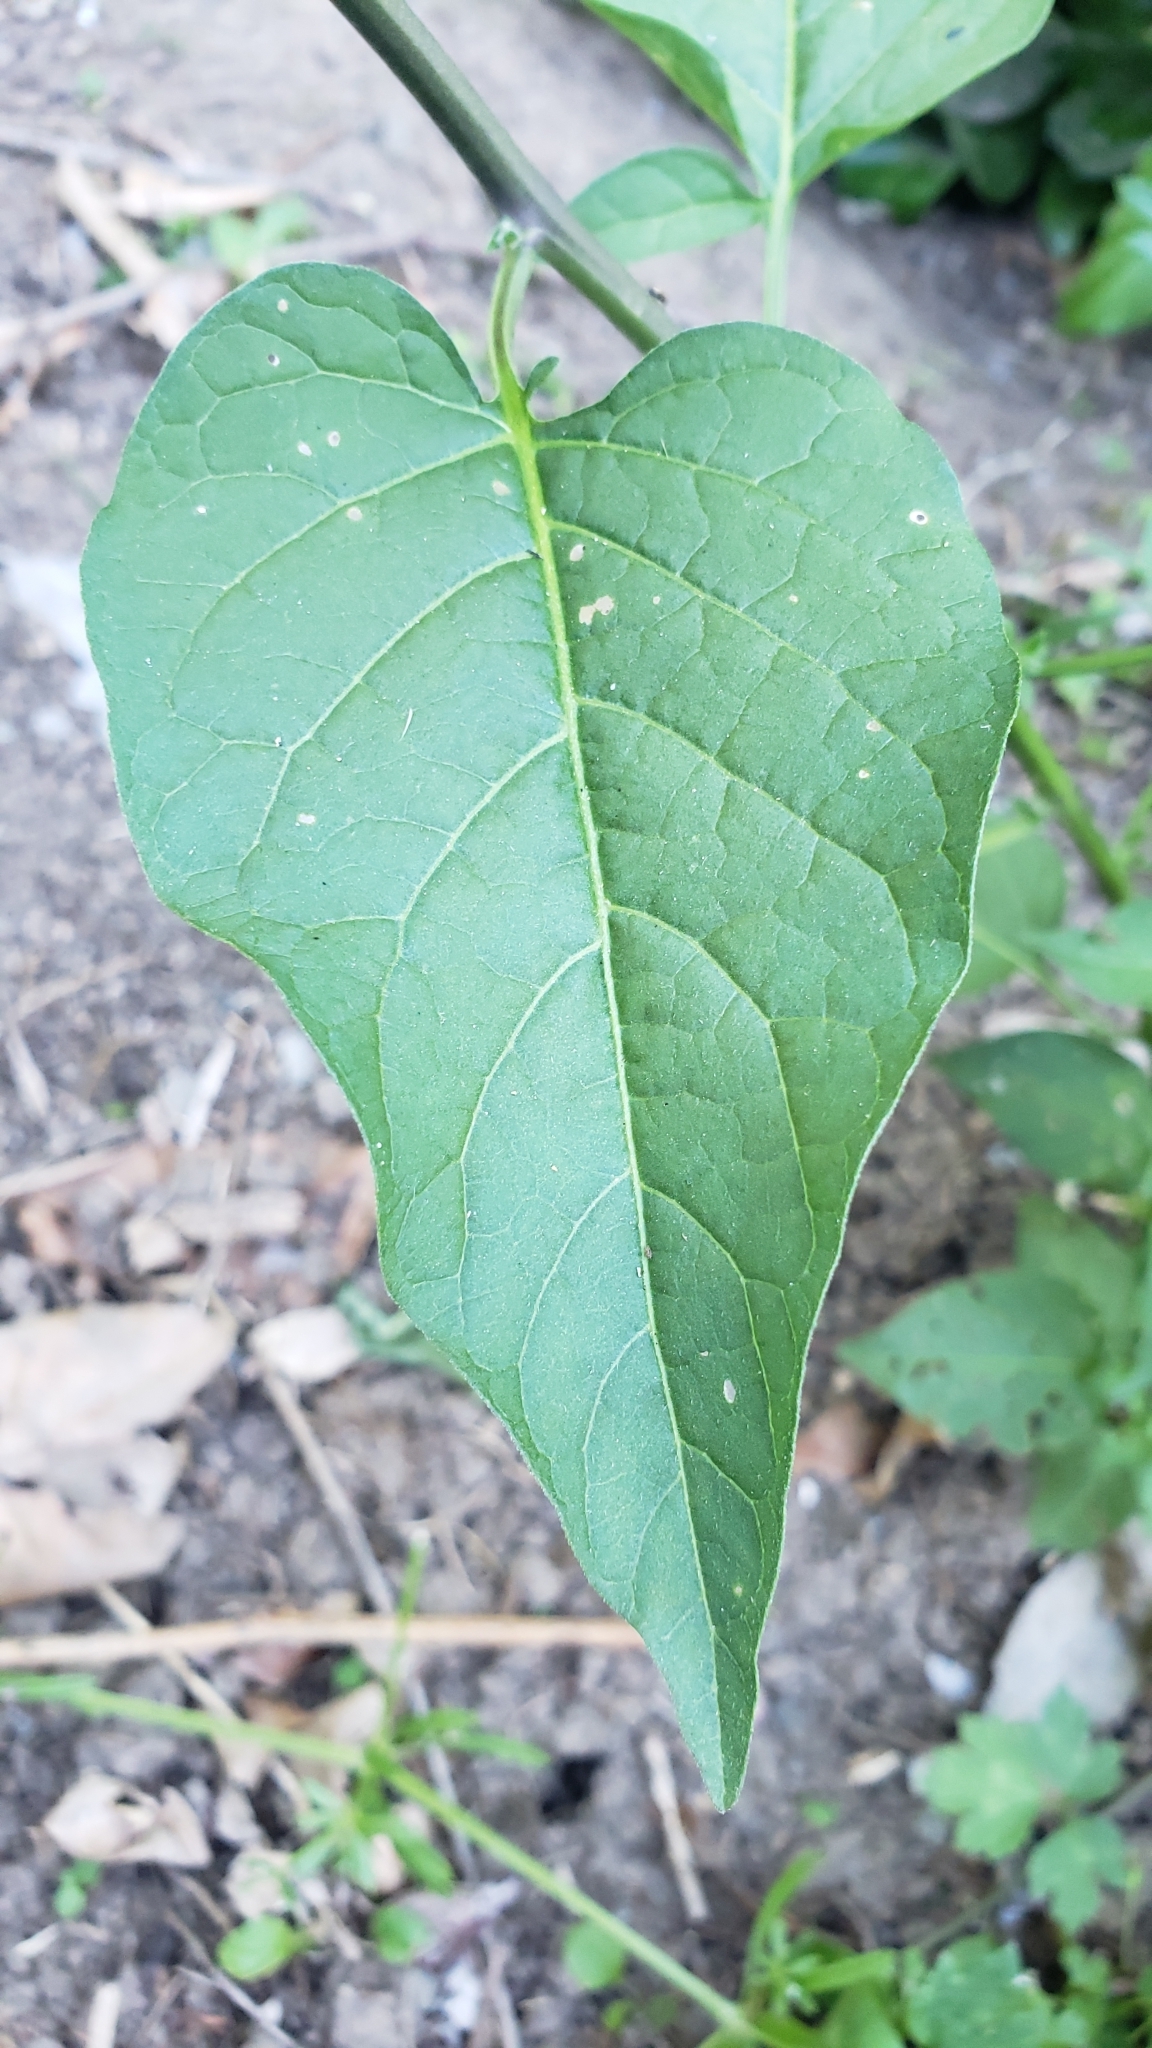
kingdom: Plantae
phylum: Tracheophyta
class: Magnoliopsida
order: Solanales
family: Solanaceae
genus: Solanum
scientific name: Solanum dulcamara
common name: Climbing nightshade
